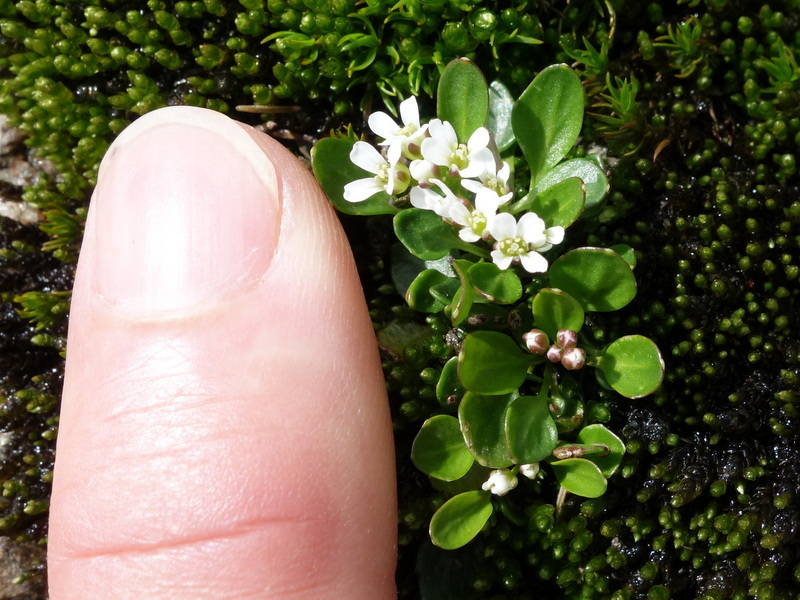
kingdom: Plantae
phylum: Tracheophyta
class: Magnoliopsida
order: Brassicales
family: Brassicaceae
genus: Cardamine
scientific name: Cardamine bellidifolia
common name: Alpine bittercress
